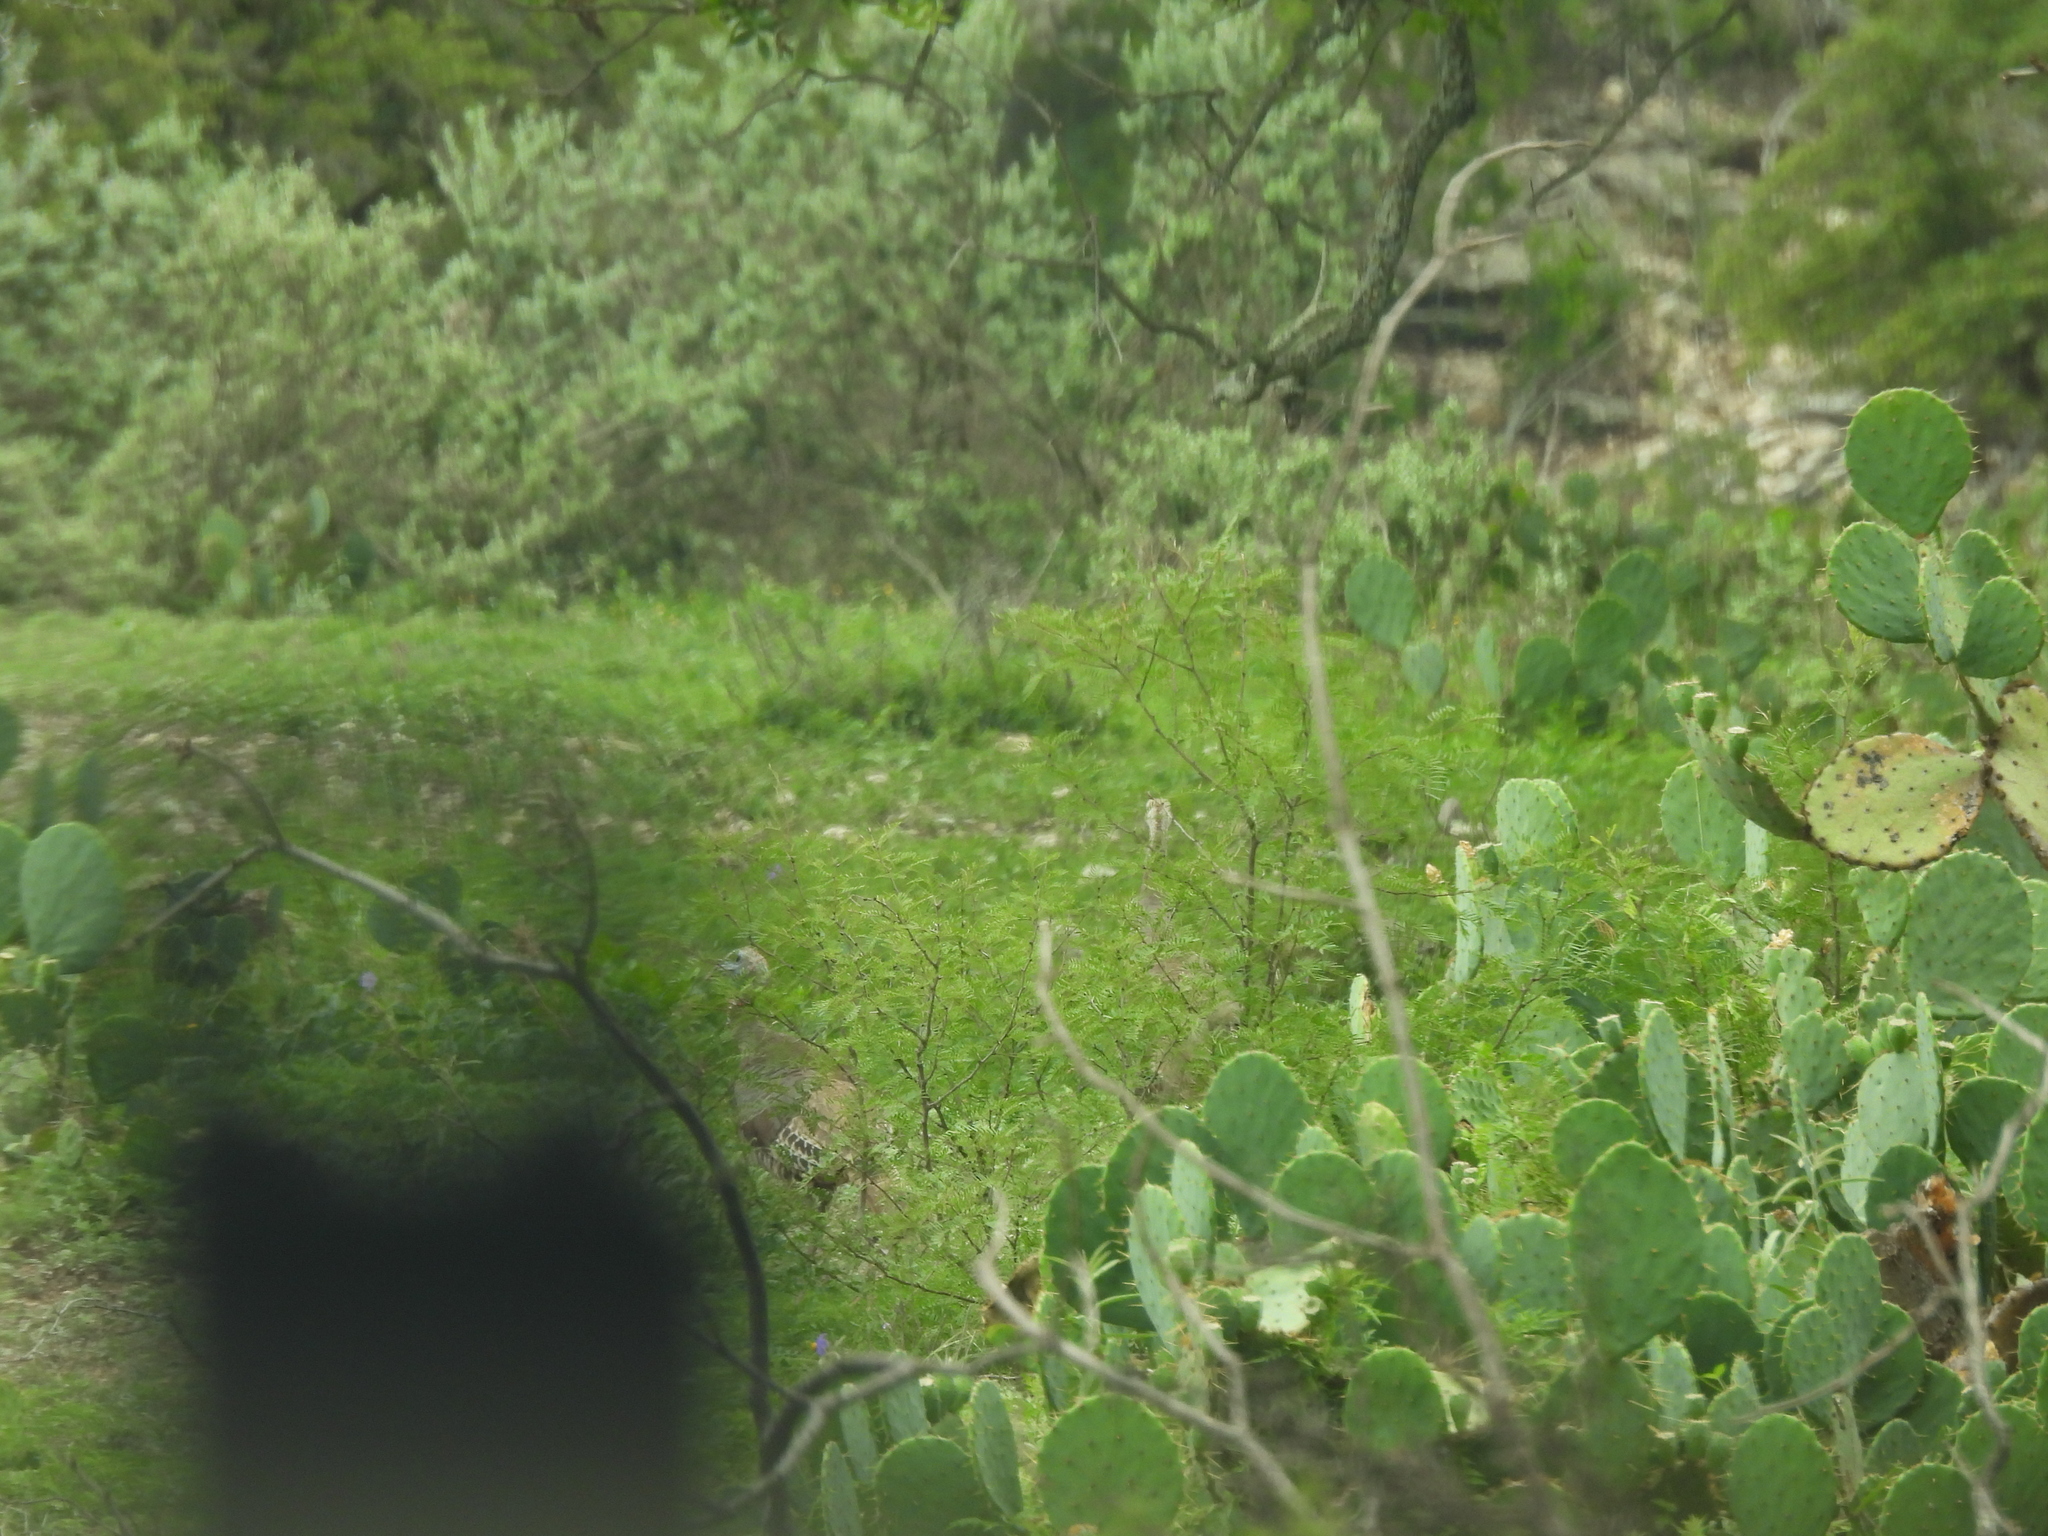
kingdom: Animalia
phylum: Chordata
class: Aves
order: Galliformes
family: Phasianidae
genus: Meleagris
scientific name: Meleagris gallopavo
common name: Wild turkey
